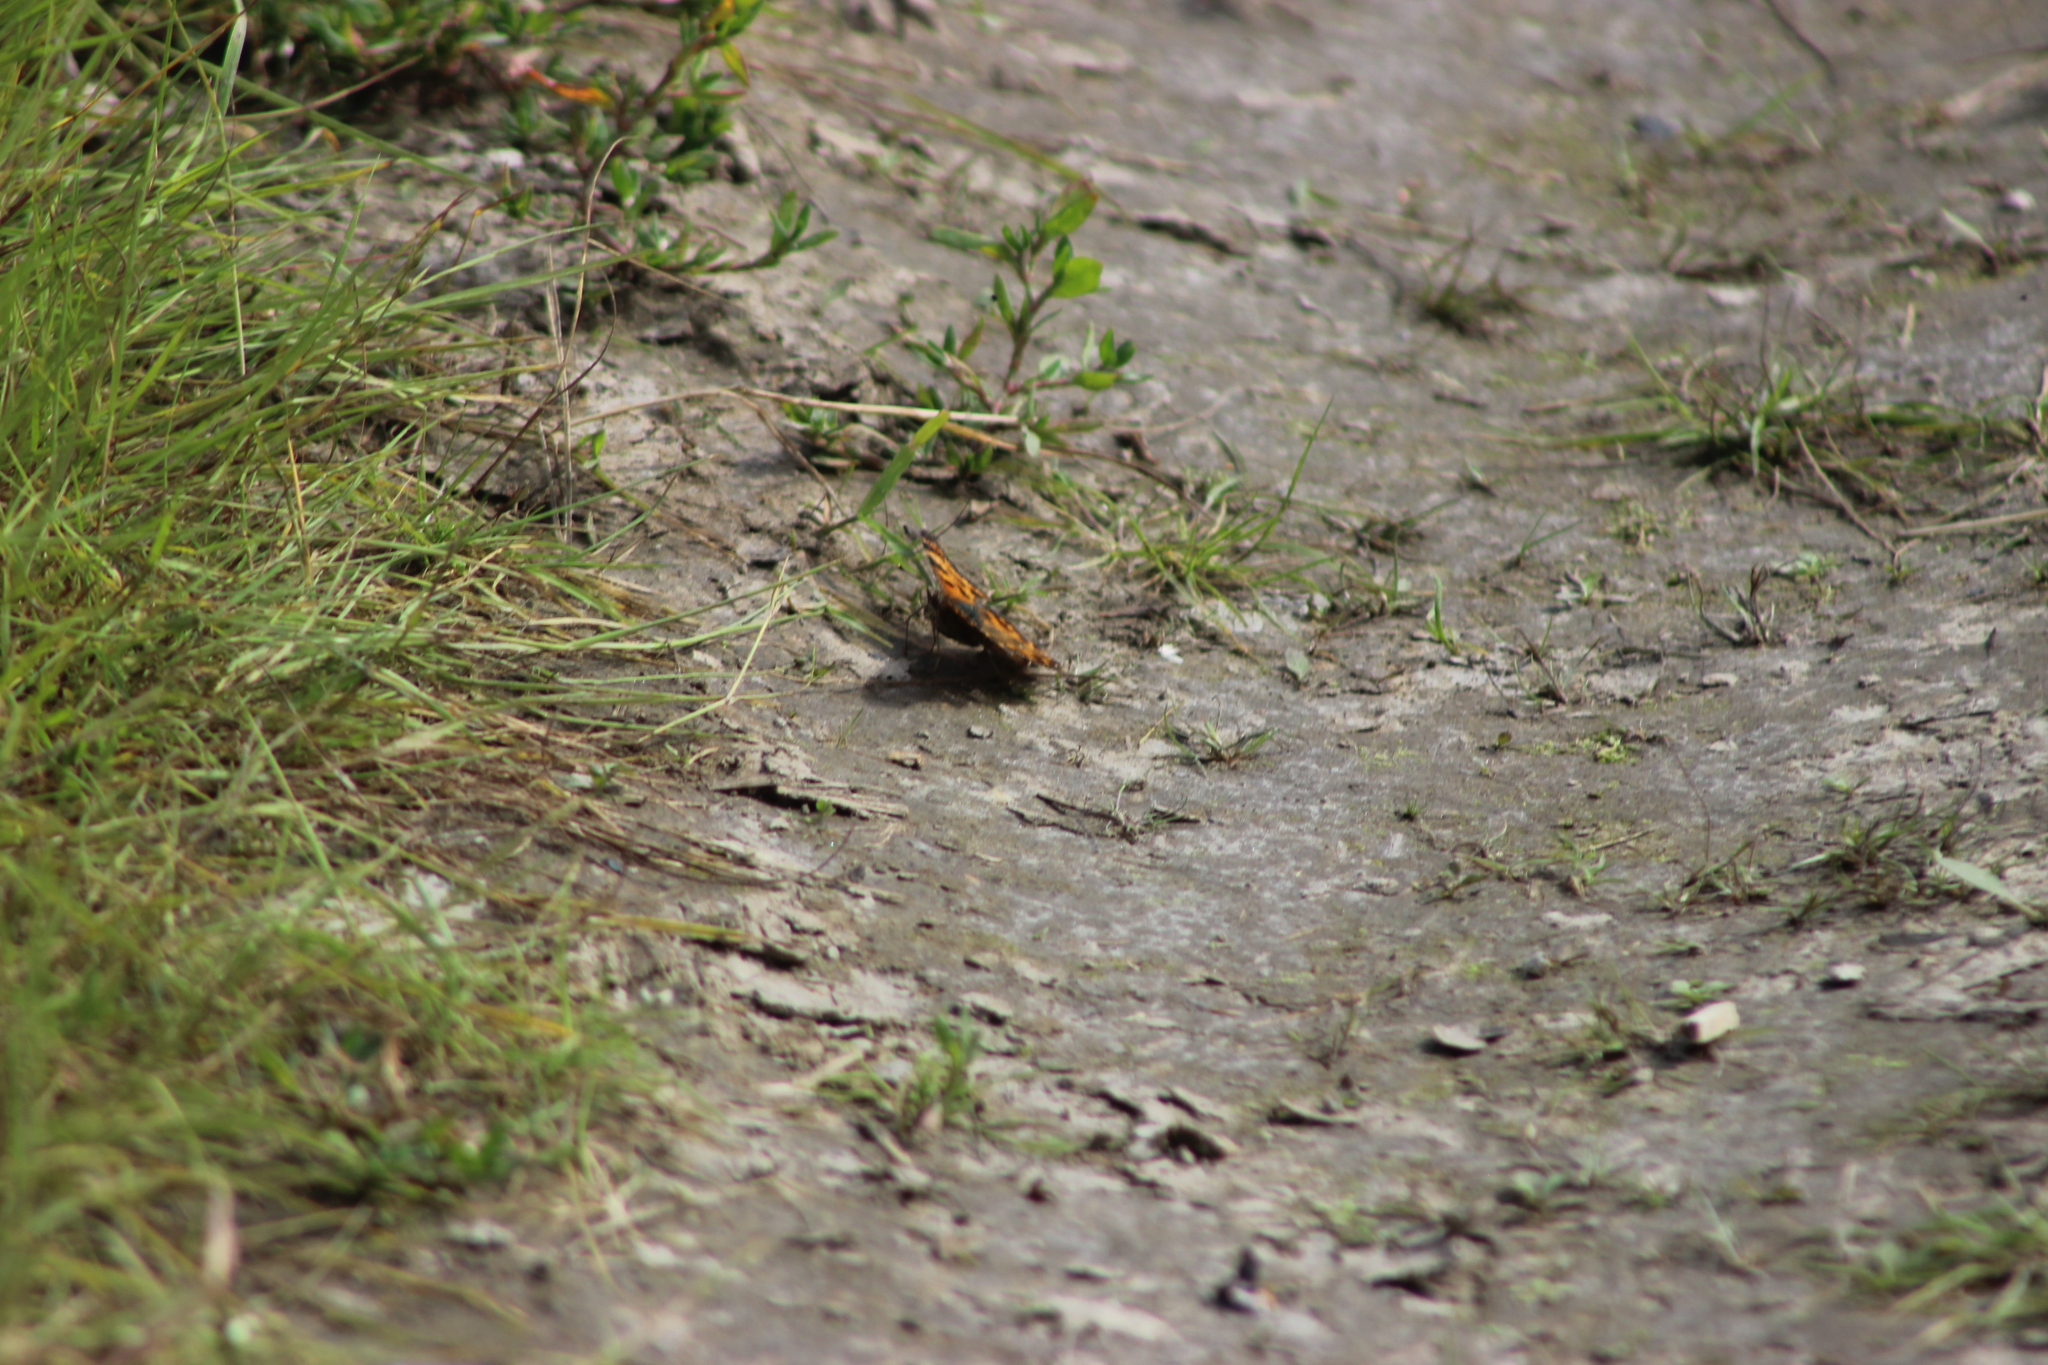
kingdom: Animalia
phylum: Arthropoda
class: Insecta
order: Lepidoptera
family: Nymphalidae
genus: Polygonia
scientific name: Polygonia c-album
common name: Comma
